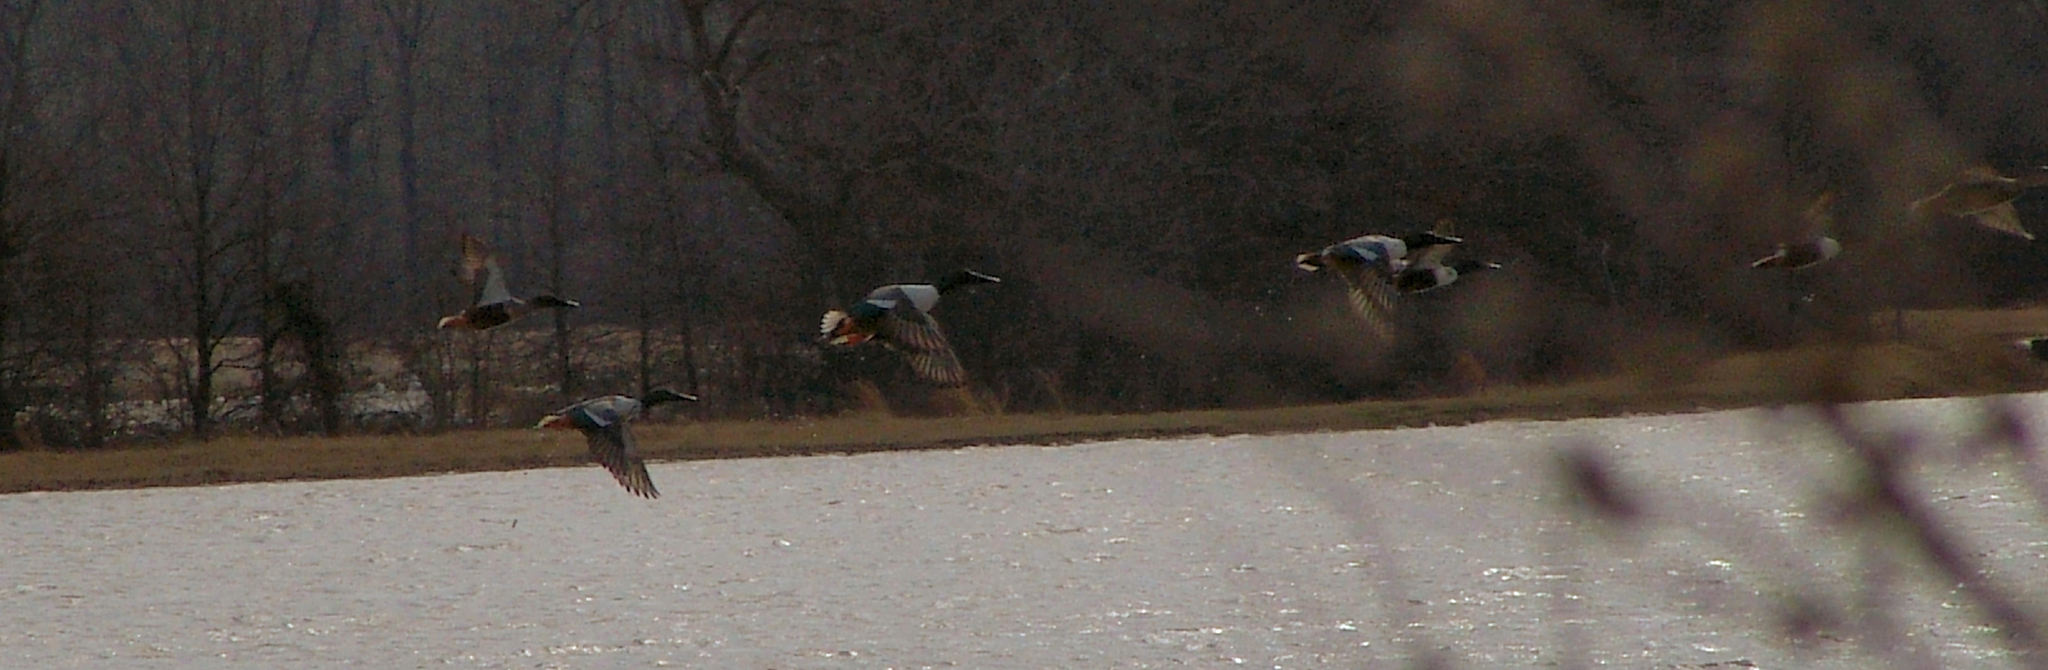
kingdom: Animalia
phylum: Chordata
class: Aves
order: Anseriformes
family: Anatidae
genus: Spatula
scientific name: Spatula clypeata
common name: Northern shoveler
